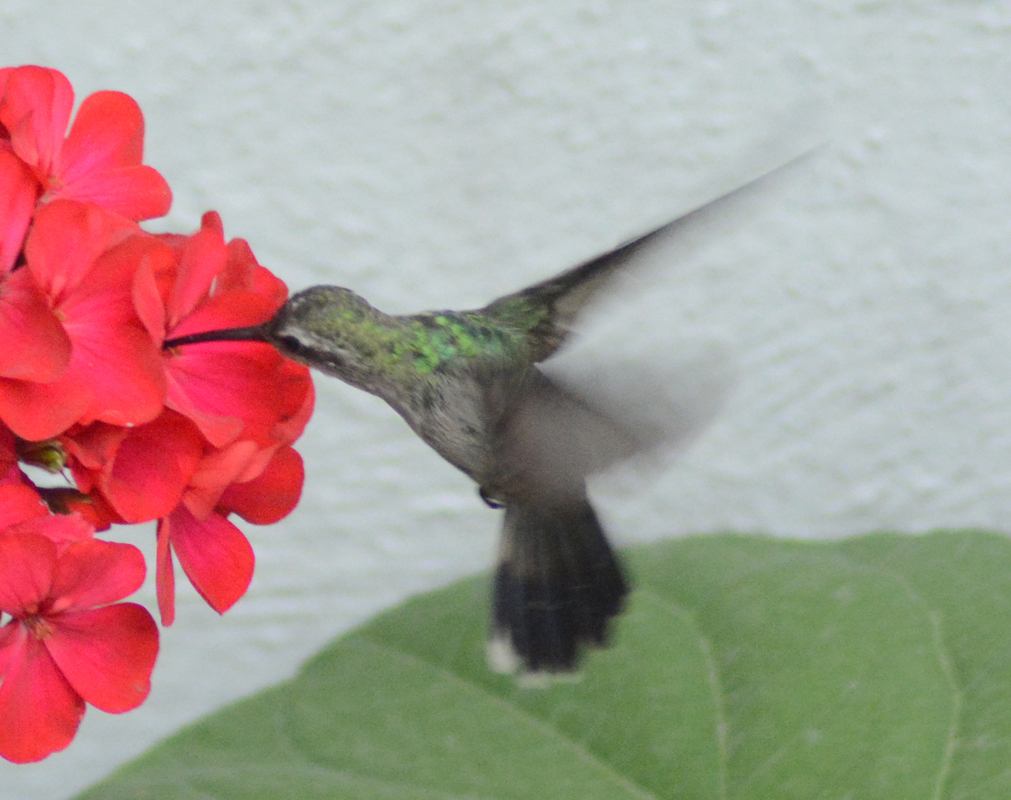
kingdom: Animalia
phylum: Chordata
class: Aves
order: Apodiformes
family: Trochilidae
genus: Cynanthus
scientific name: Cynanthus latirostris
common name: Broad-billed hummingbird
